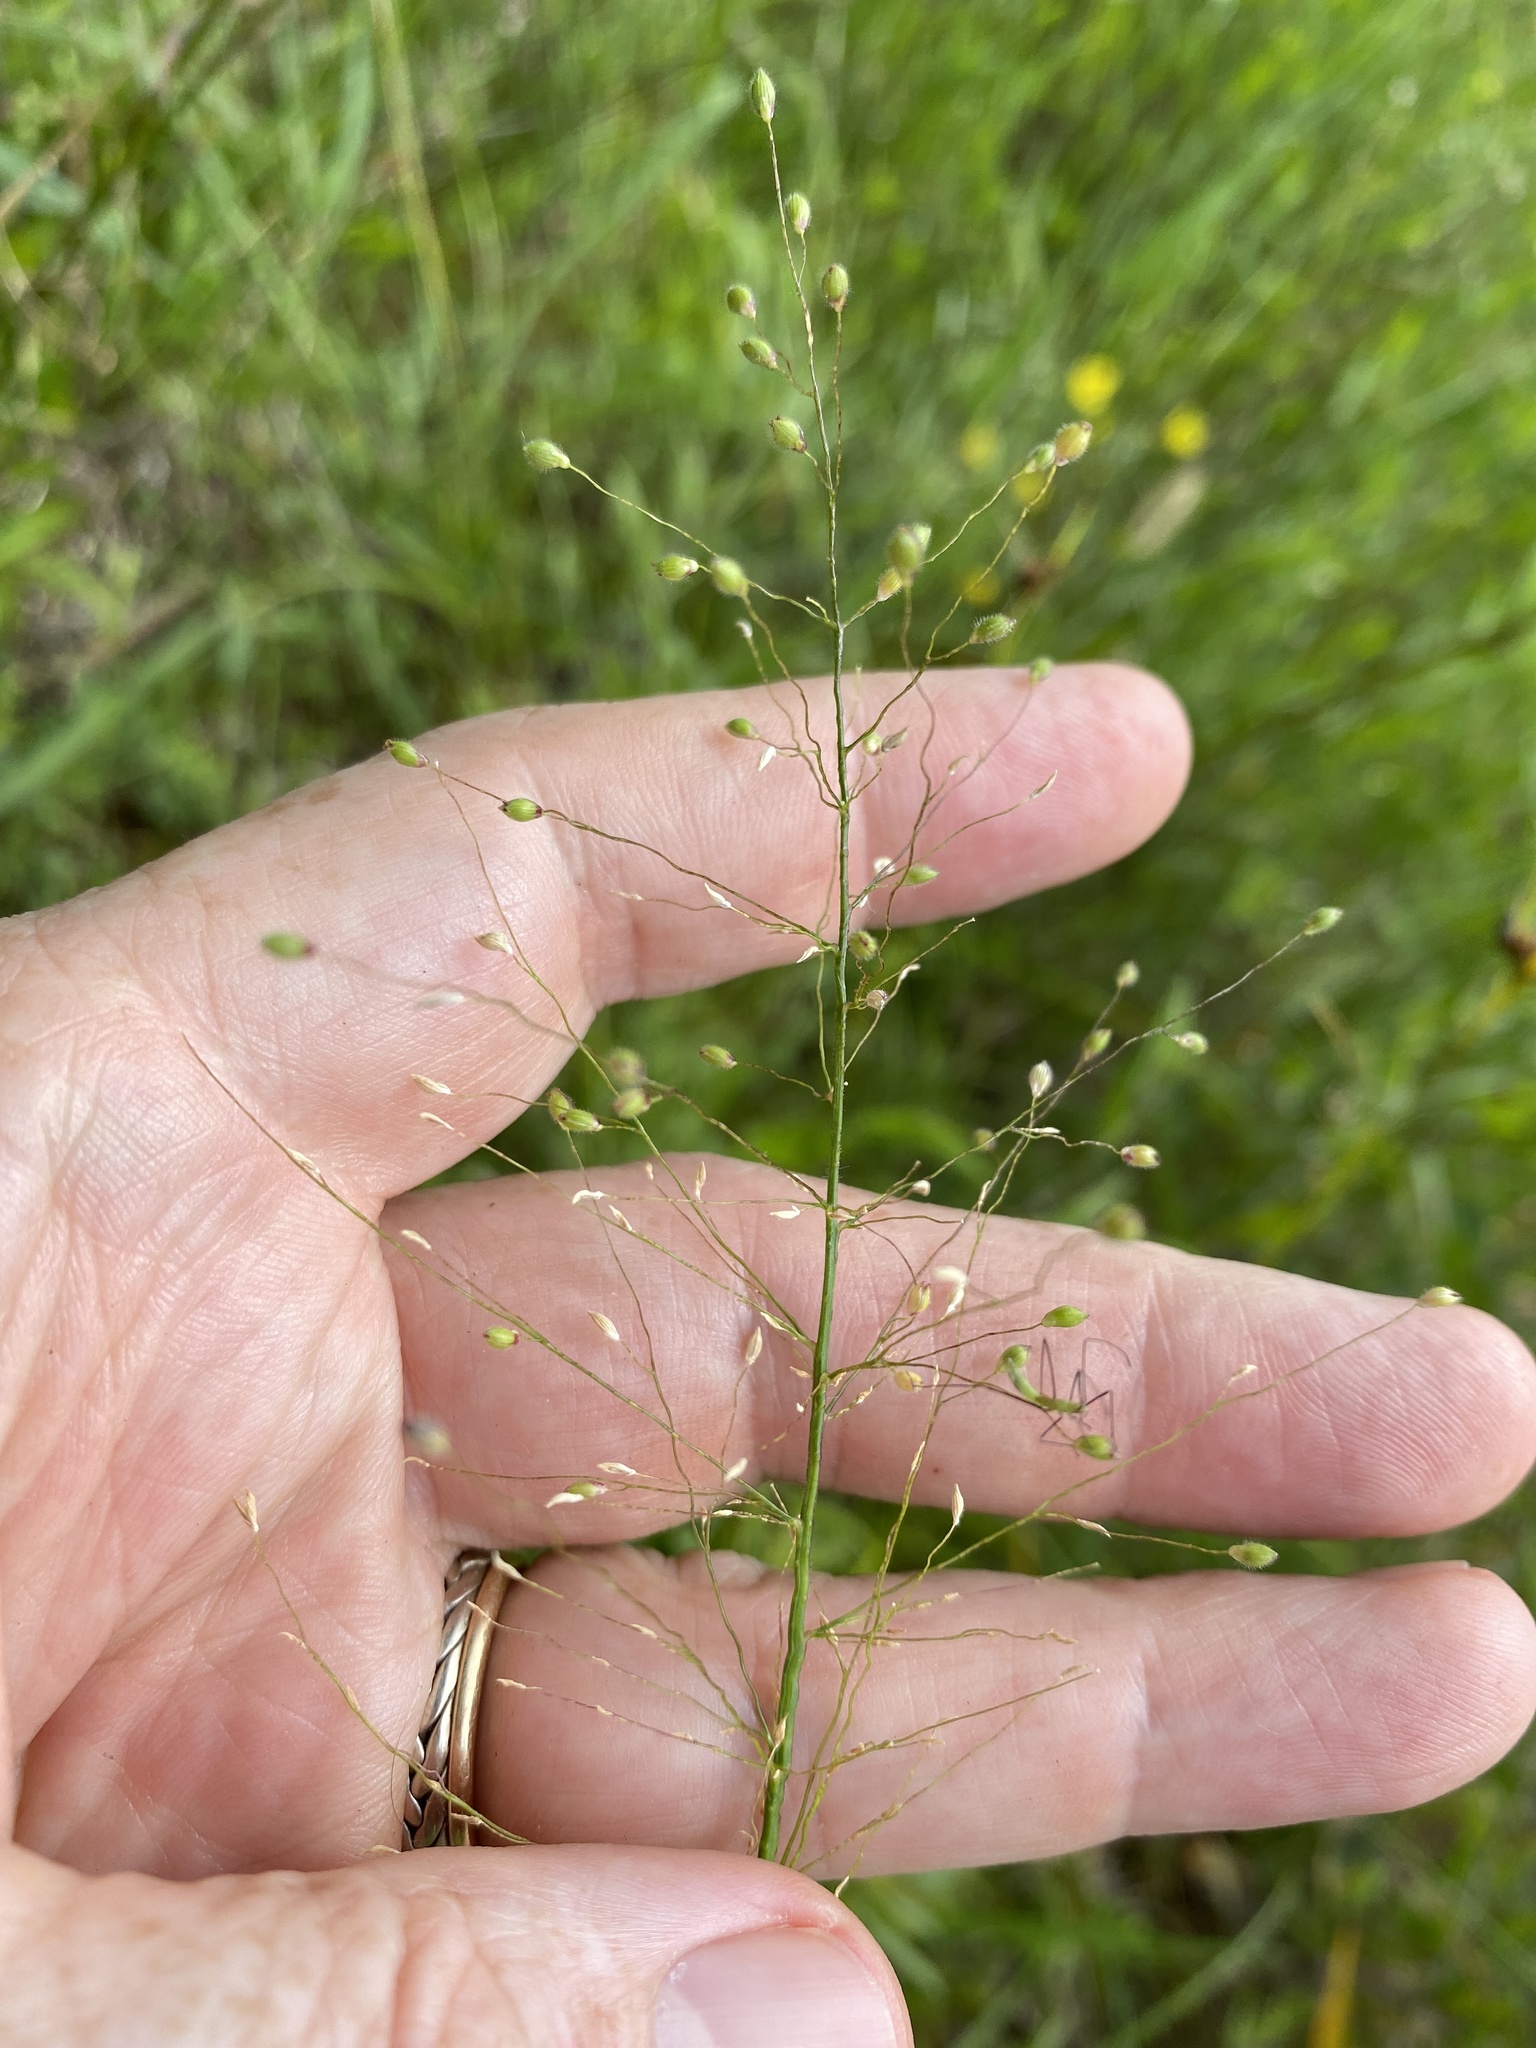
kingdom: Plantae
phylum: Tracheophyta
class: Liliopsida
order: Poales
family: Poaceae
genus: Dichanthelium
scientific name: Dichanthelium scoparium
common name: Velvety panic grass
